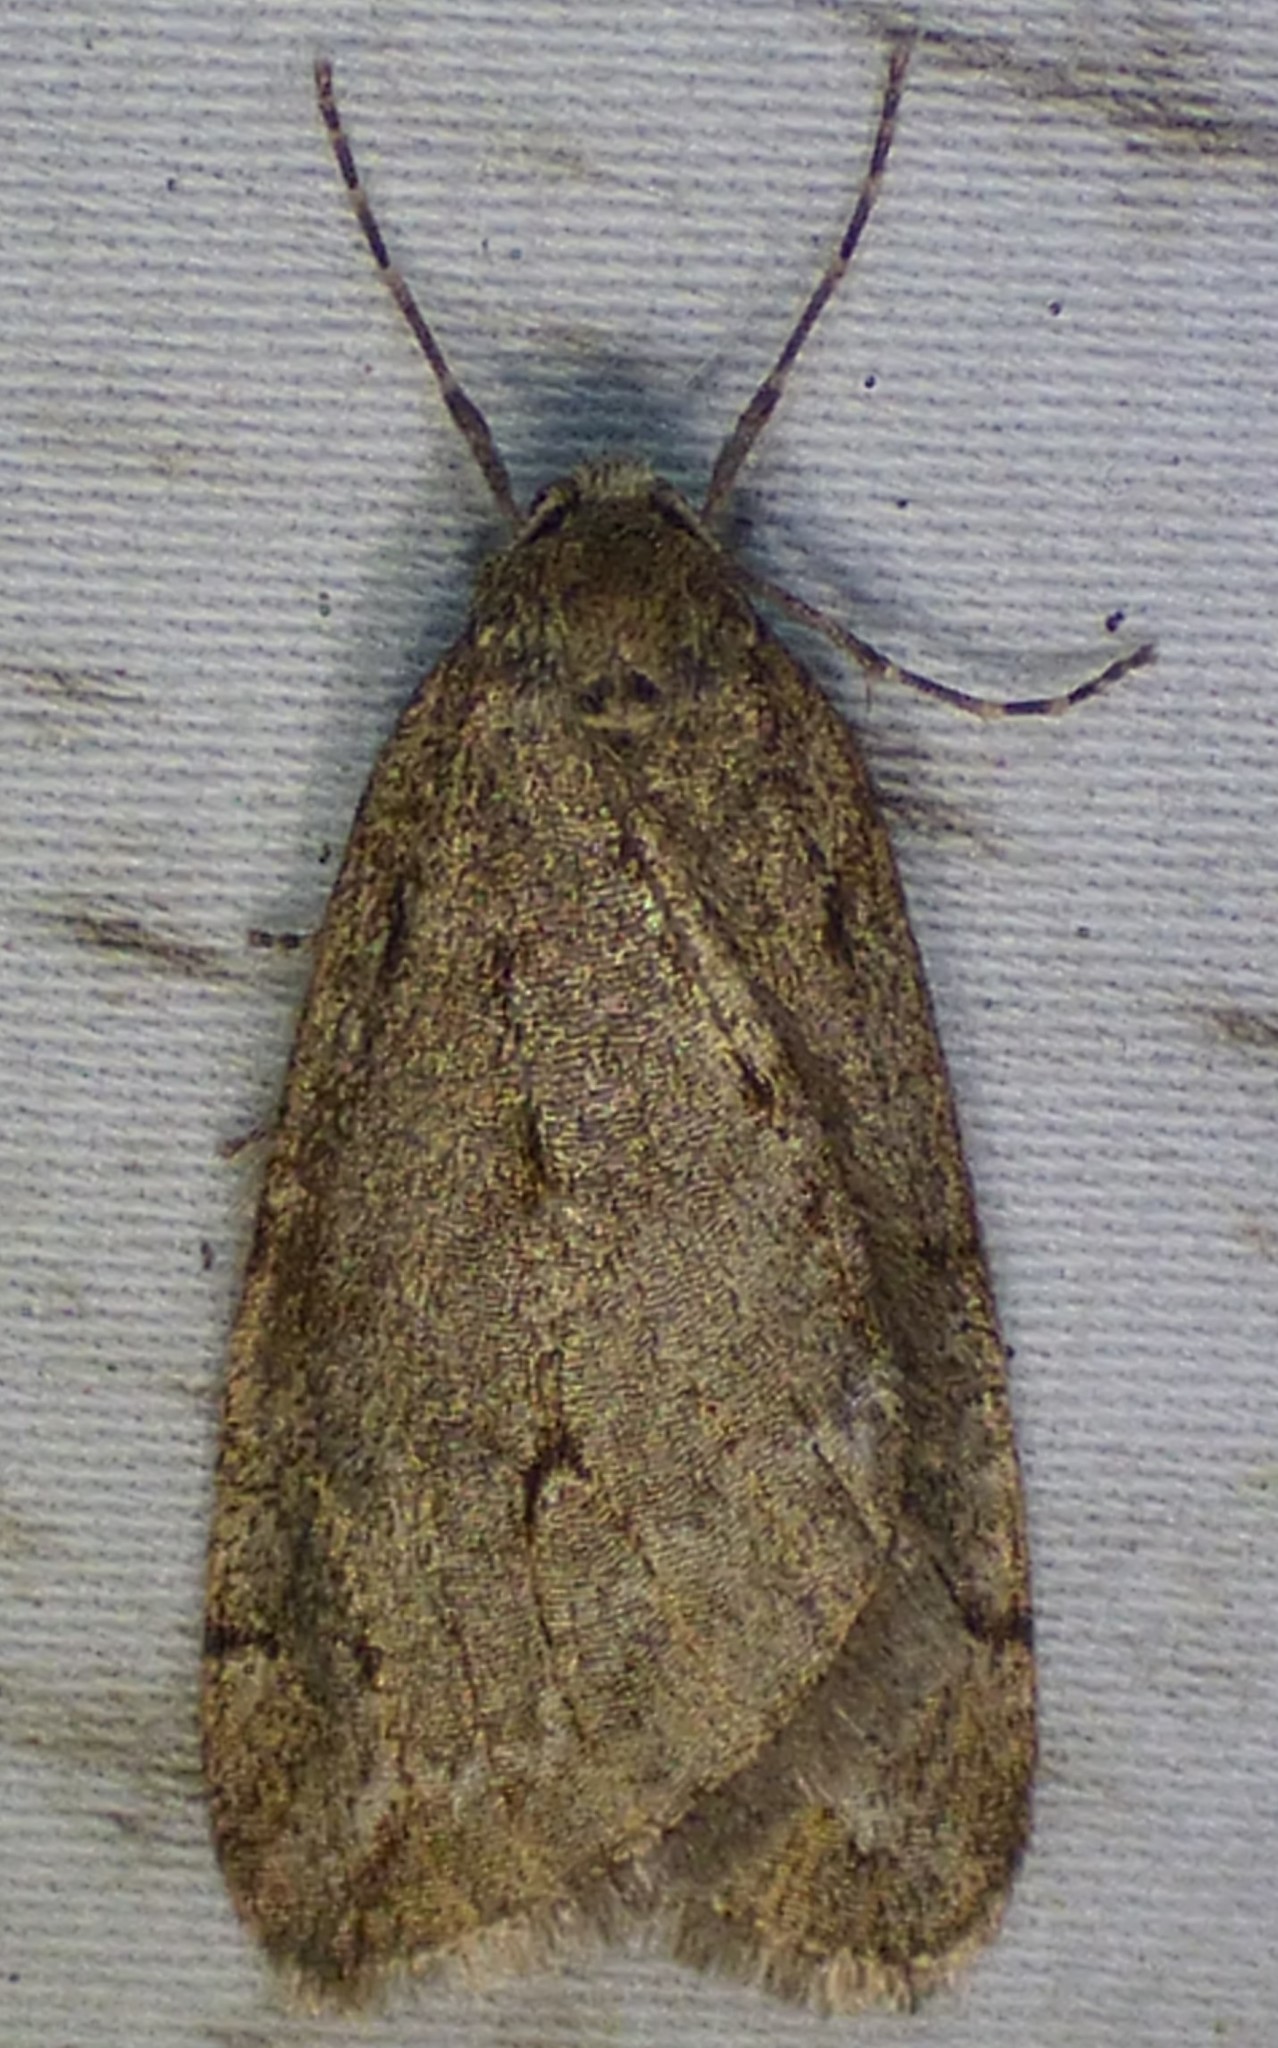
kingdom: Animalia
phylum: Arthropoda
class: Insecta
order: Lepidoptera
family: Geometridae
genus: Paleacrita
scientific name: Paleacrita vernata
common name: Spring cankerworm
